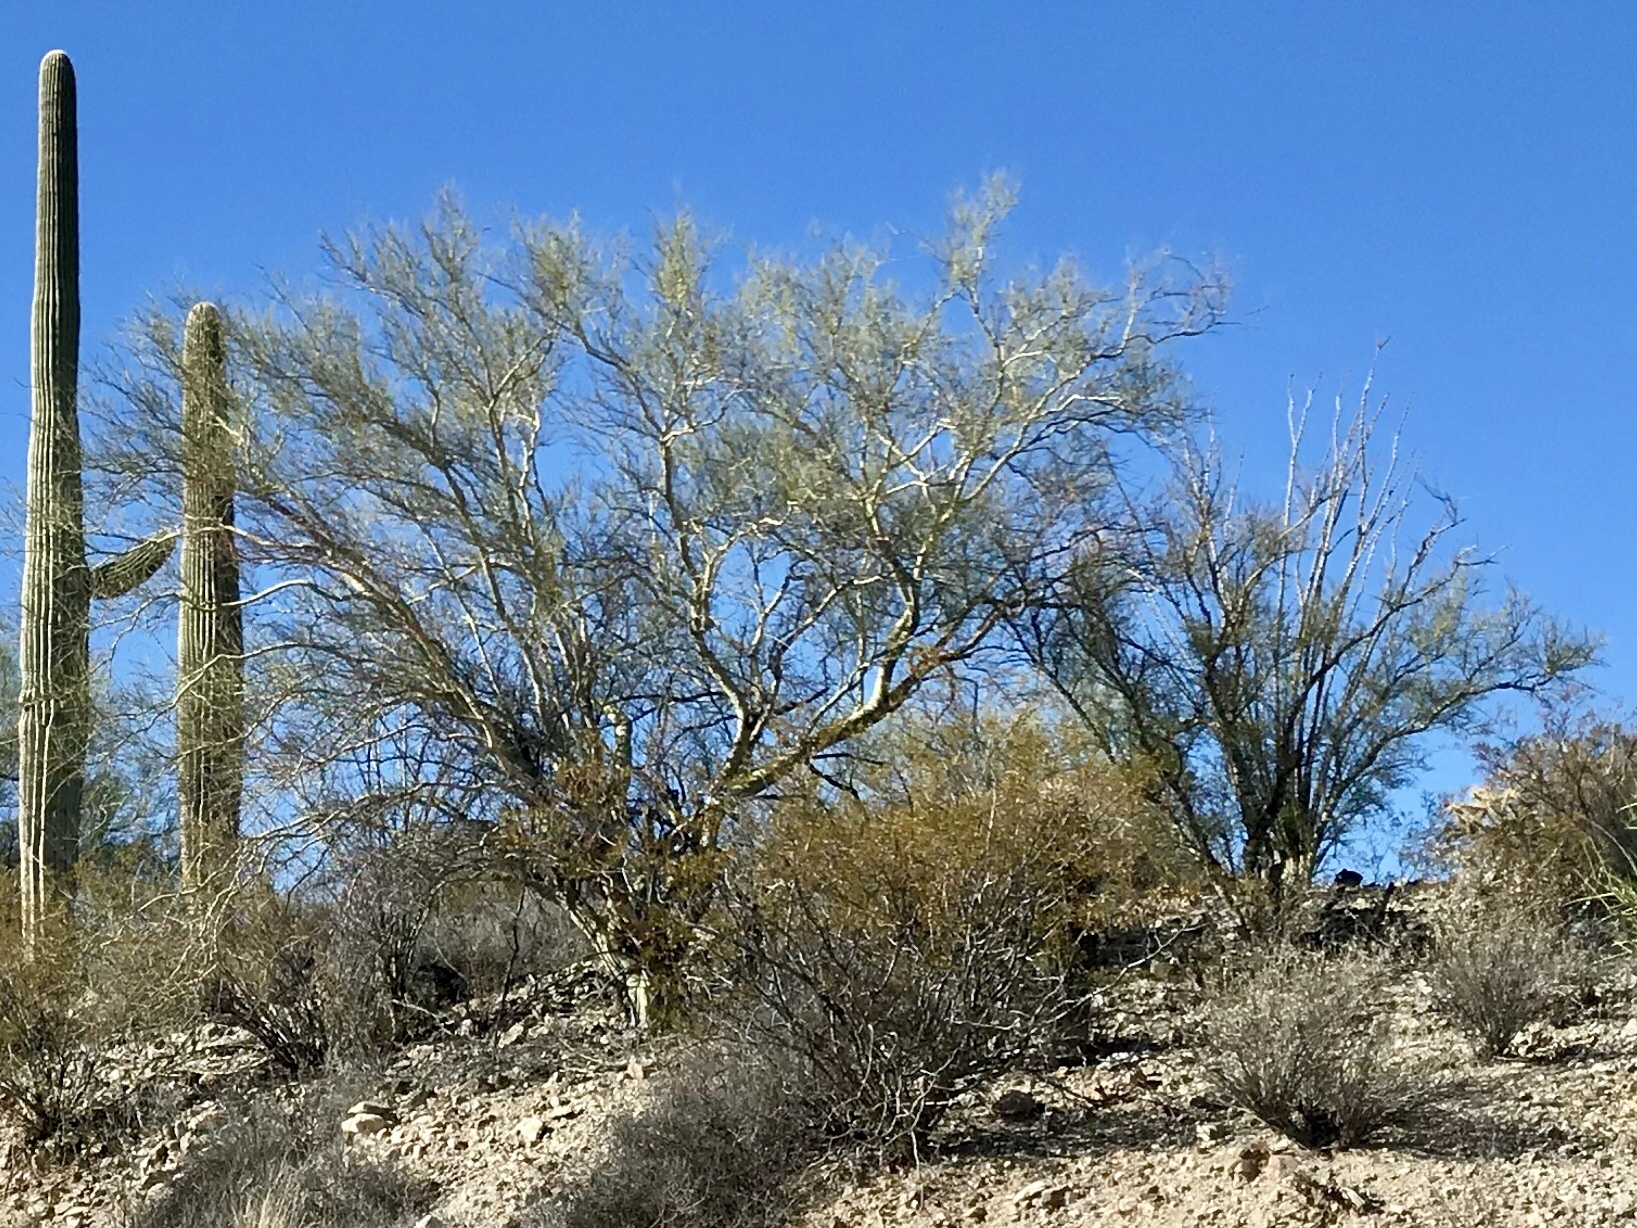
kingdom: Plantae
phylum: Tracheophyta
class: Magnoliopsida
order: Fabales
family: Fabaceae
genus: Parkinsonia
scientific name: Parkinsonia microphylla
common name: Yellow paloverde
